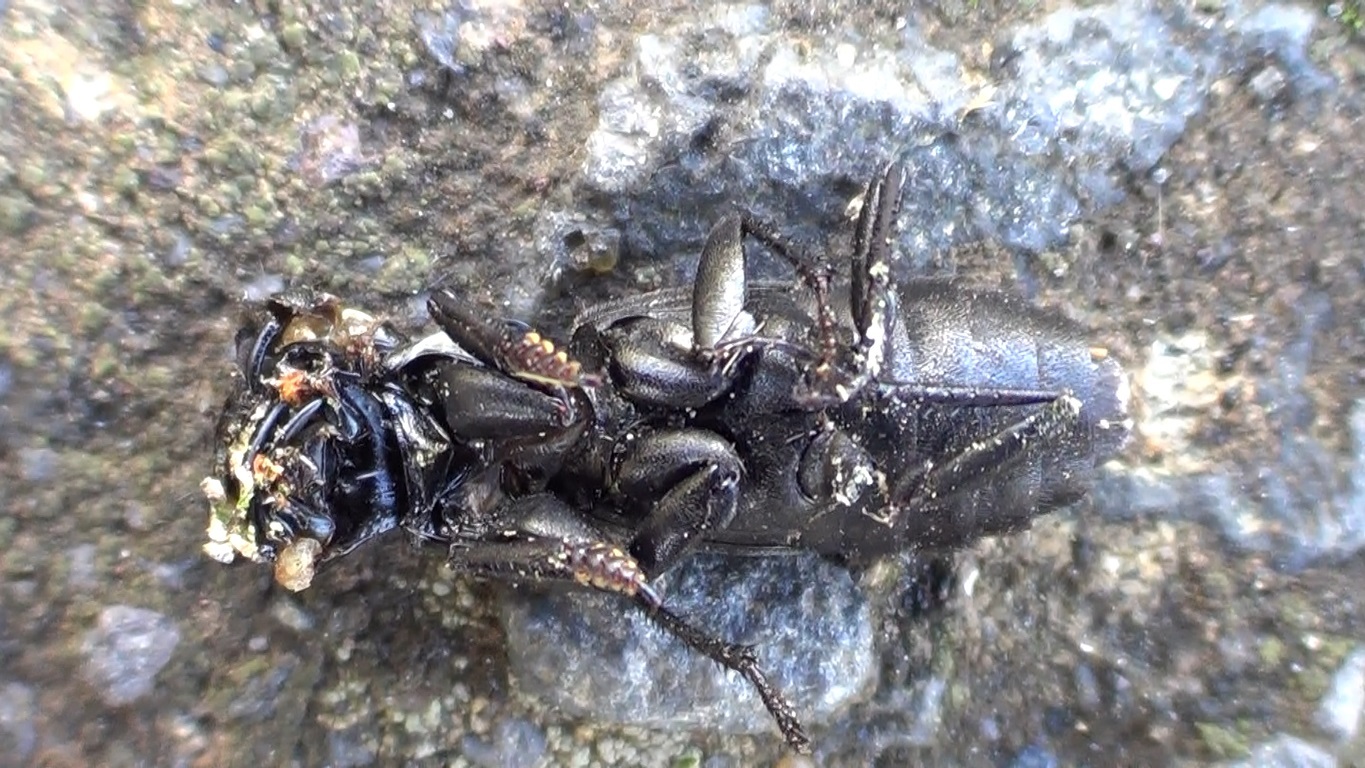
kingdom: Animalia
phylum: Arthropoda
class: Insecta
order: Coleoptera
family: Staphylinidae
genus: Ocypus
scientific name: Ocypus olens
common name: Devil's coach-horse
